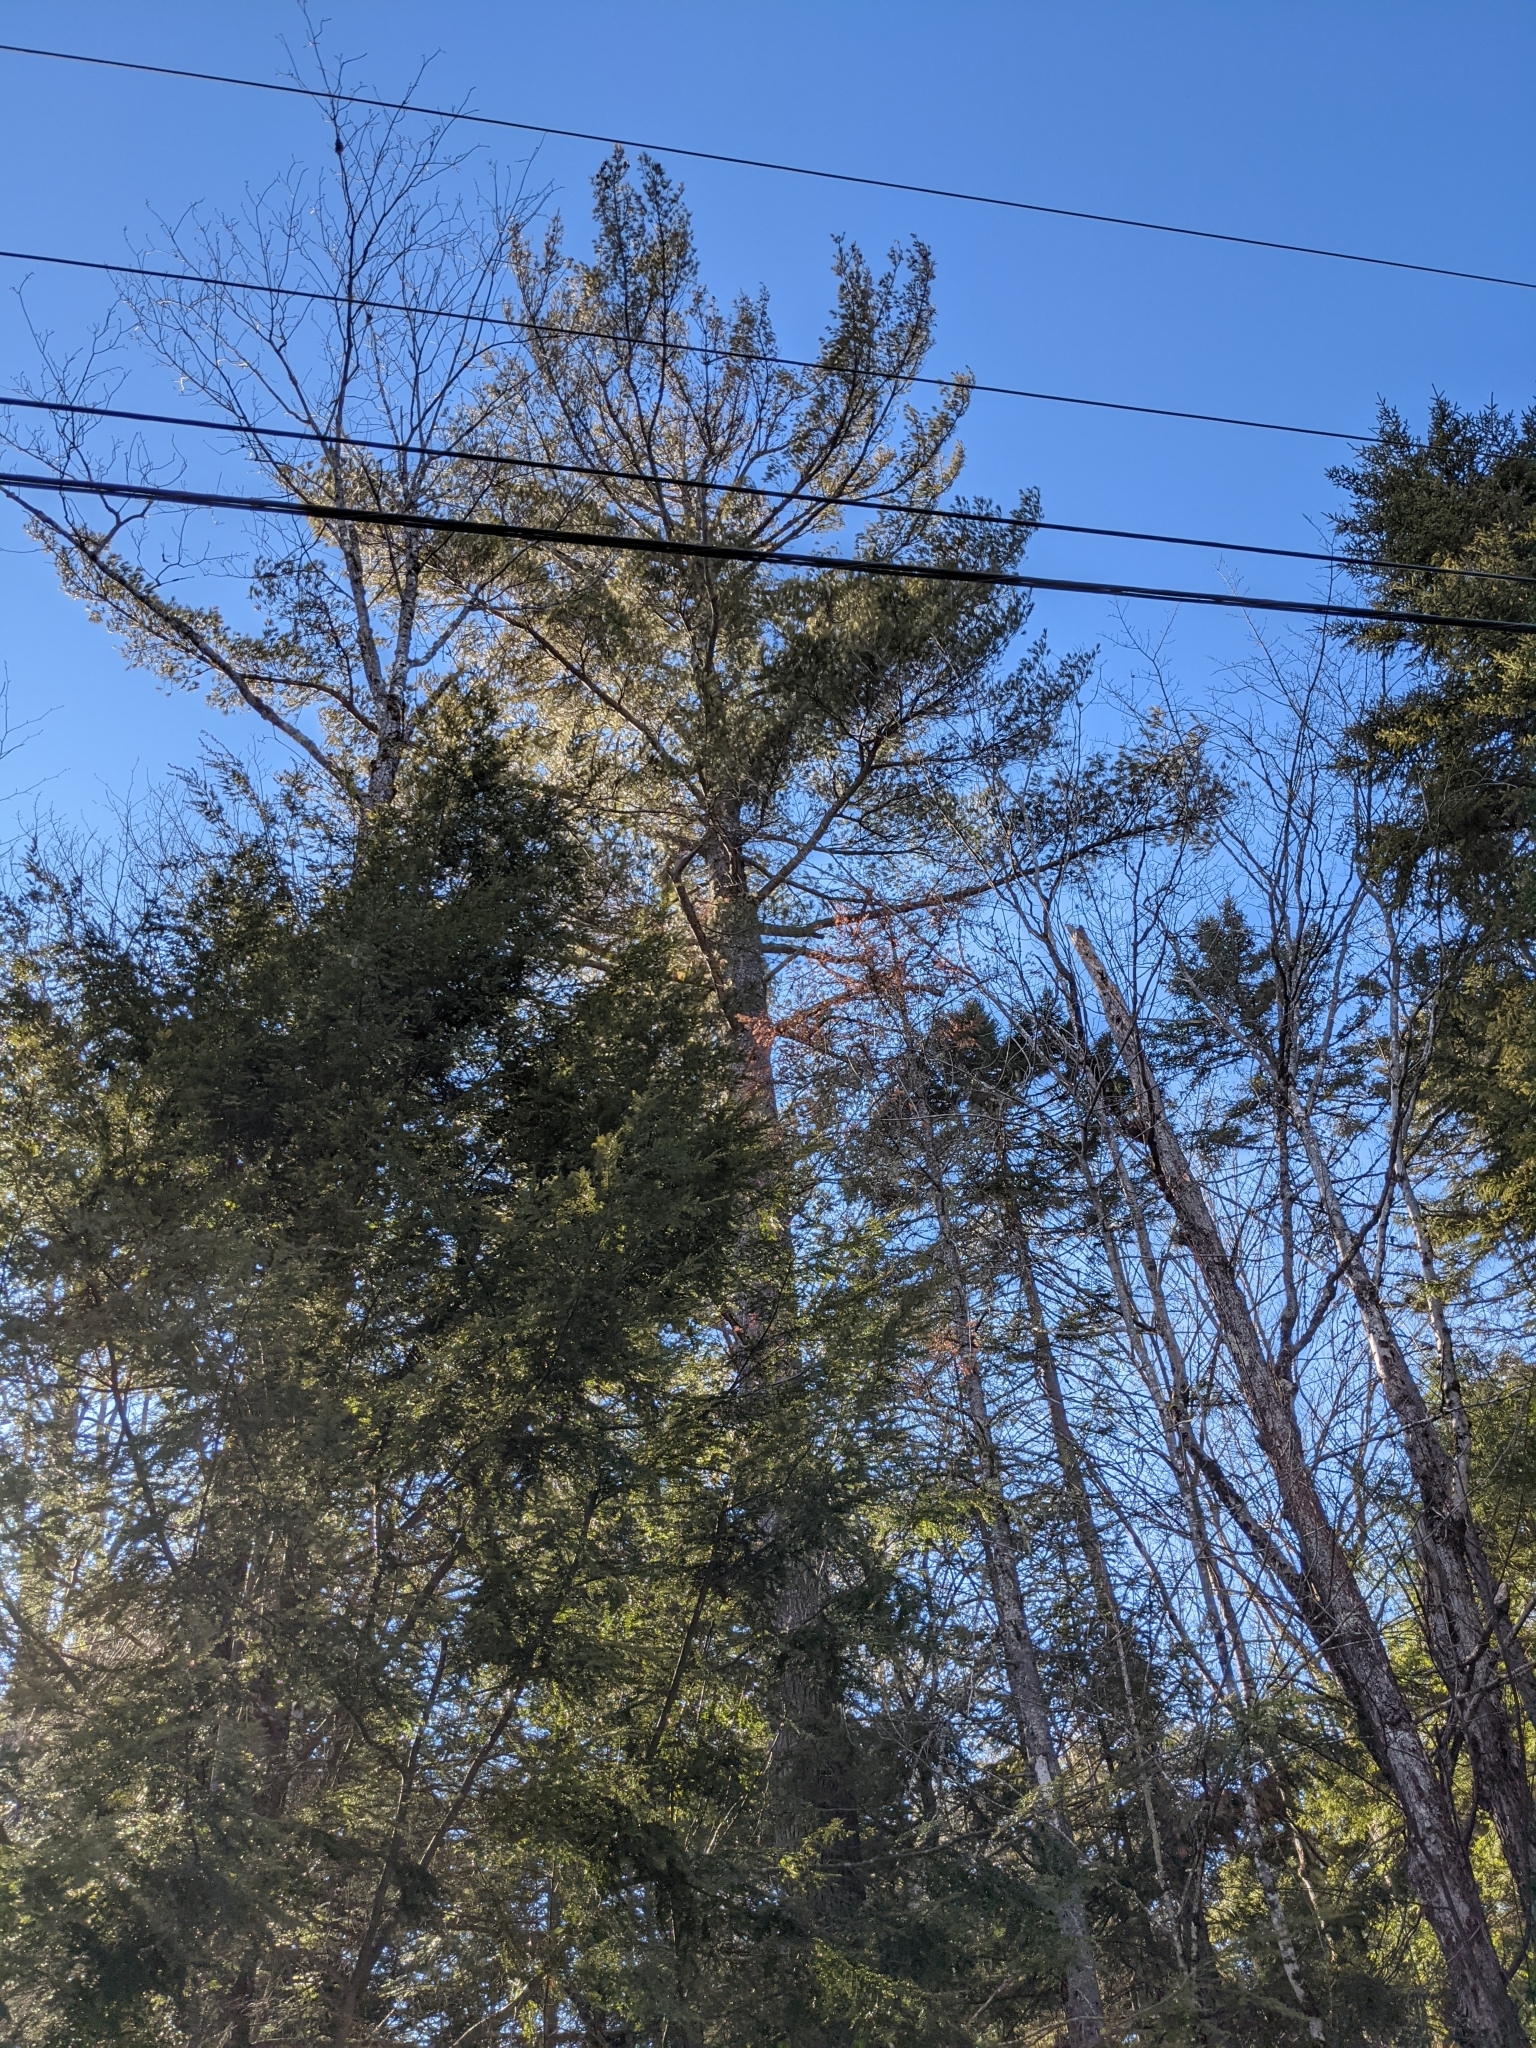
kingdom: Plantae
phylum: Tracheophyta
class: Pinopsida
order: Pinales
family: Pinaceae
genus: Pinus
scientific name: Pinus strobus
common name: Weymouth pine
